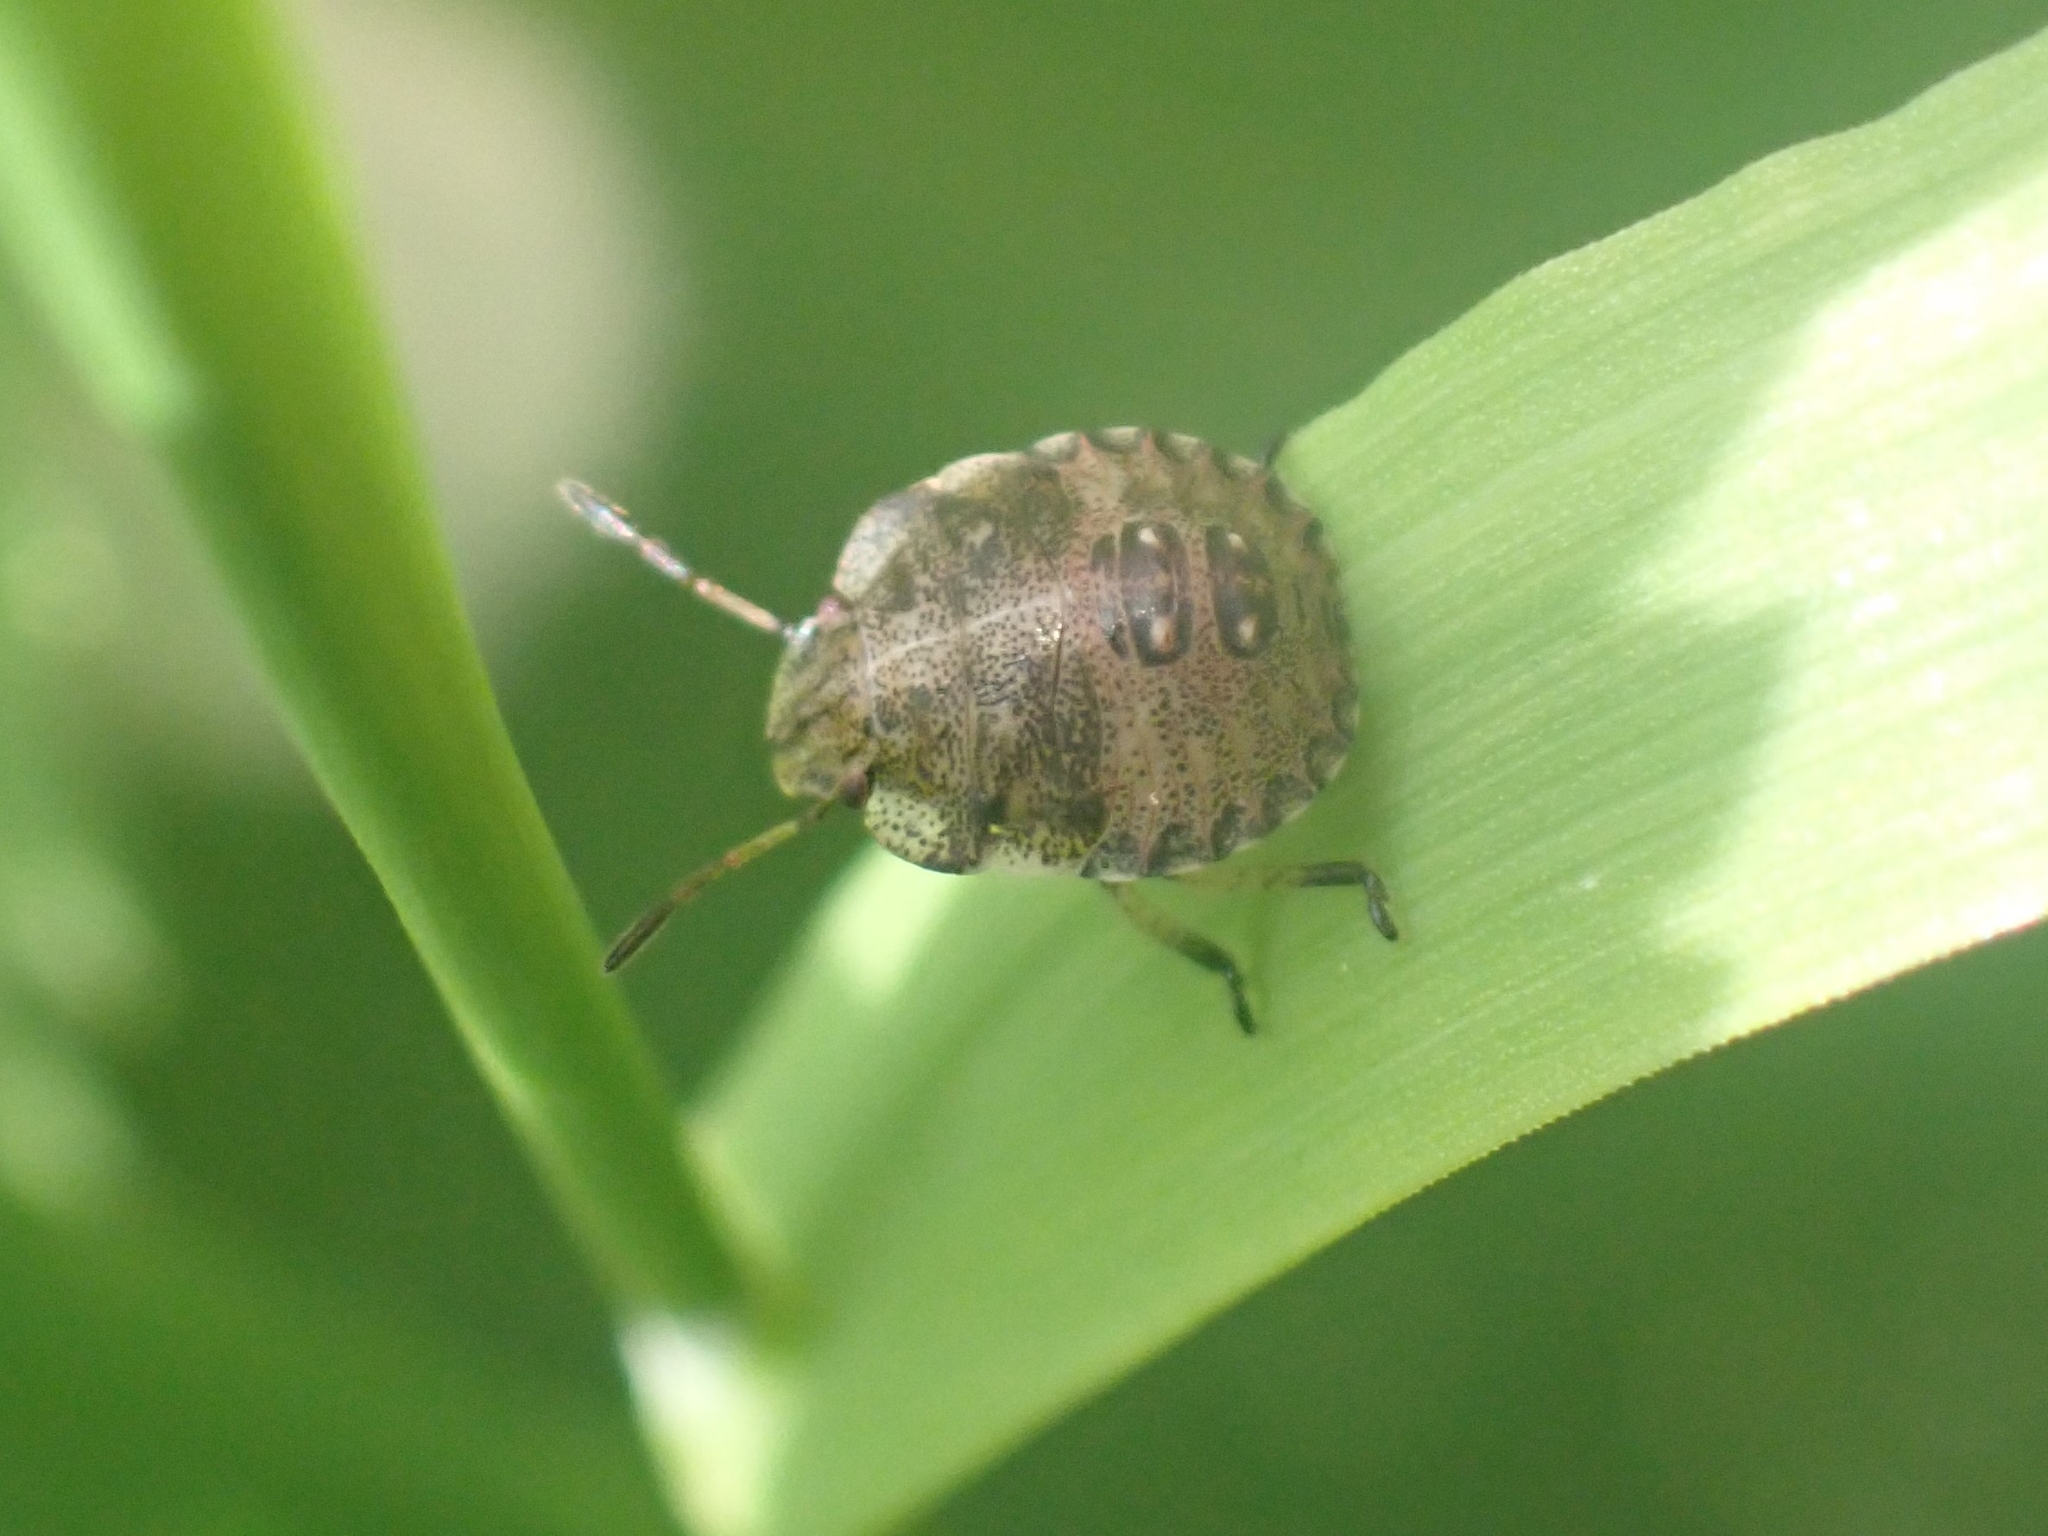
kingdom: Animalia
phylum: Arthropoda
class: Insecta
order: Hemiptera
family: Pentatomidae
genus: Dyroderes
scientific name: Dyroderes umbraculatus
